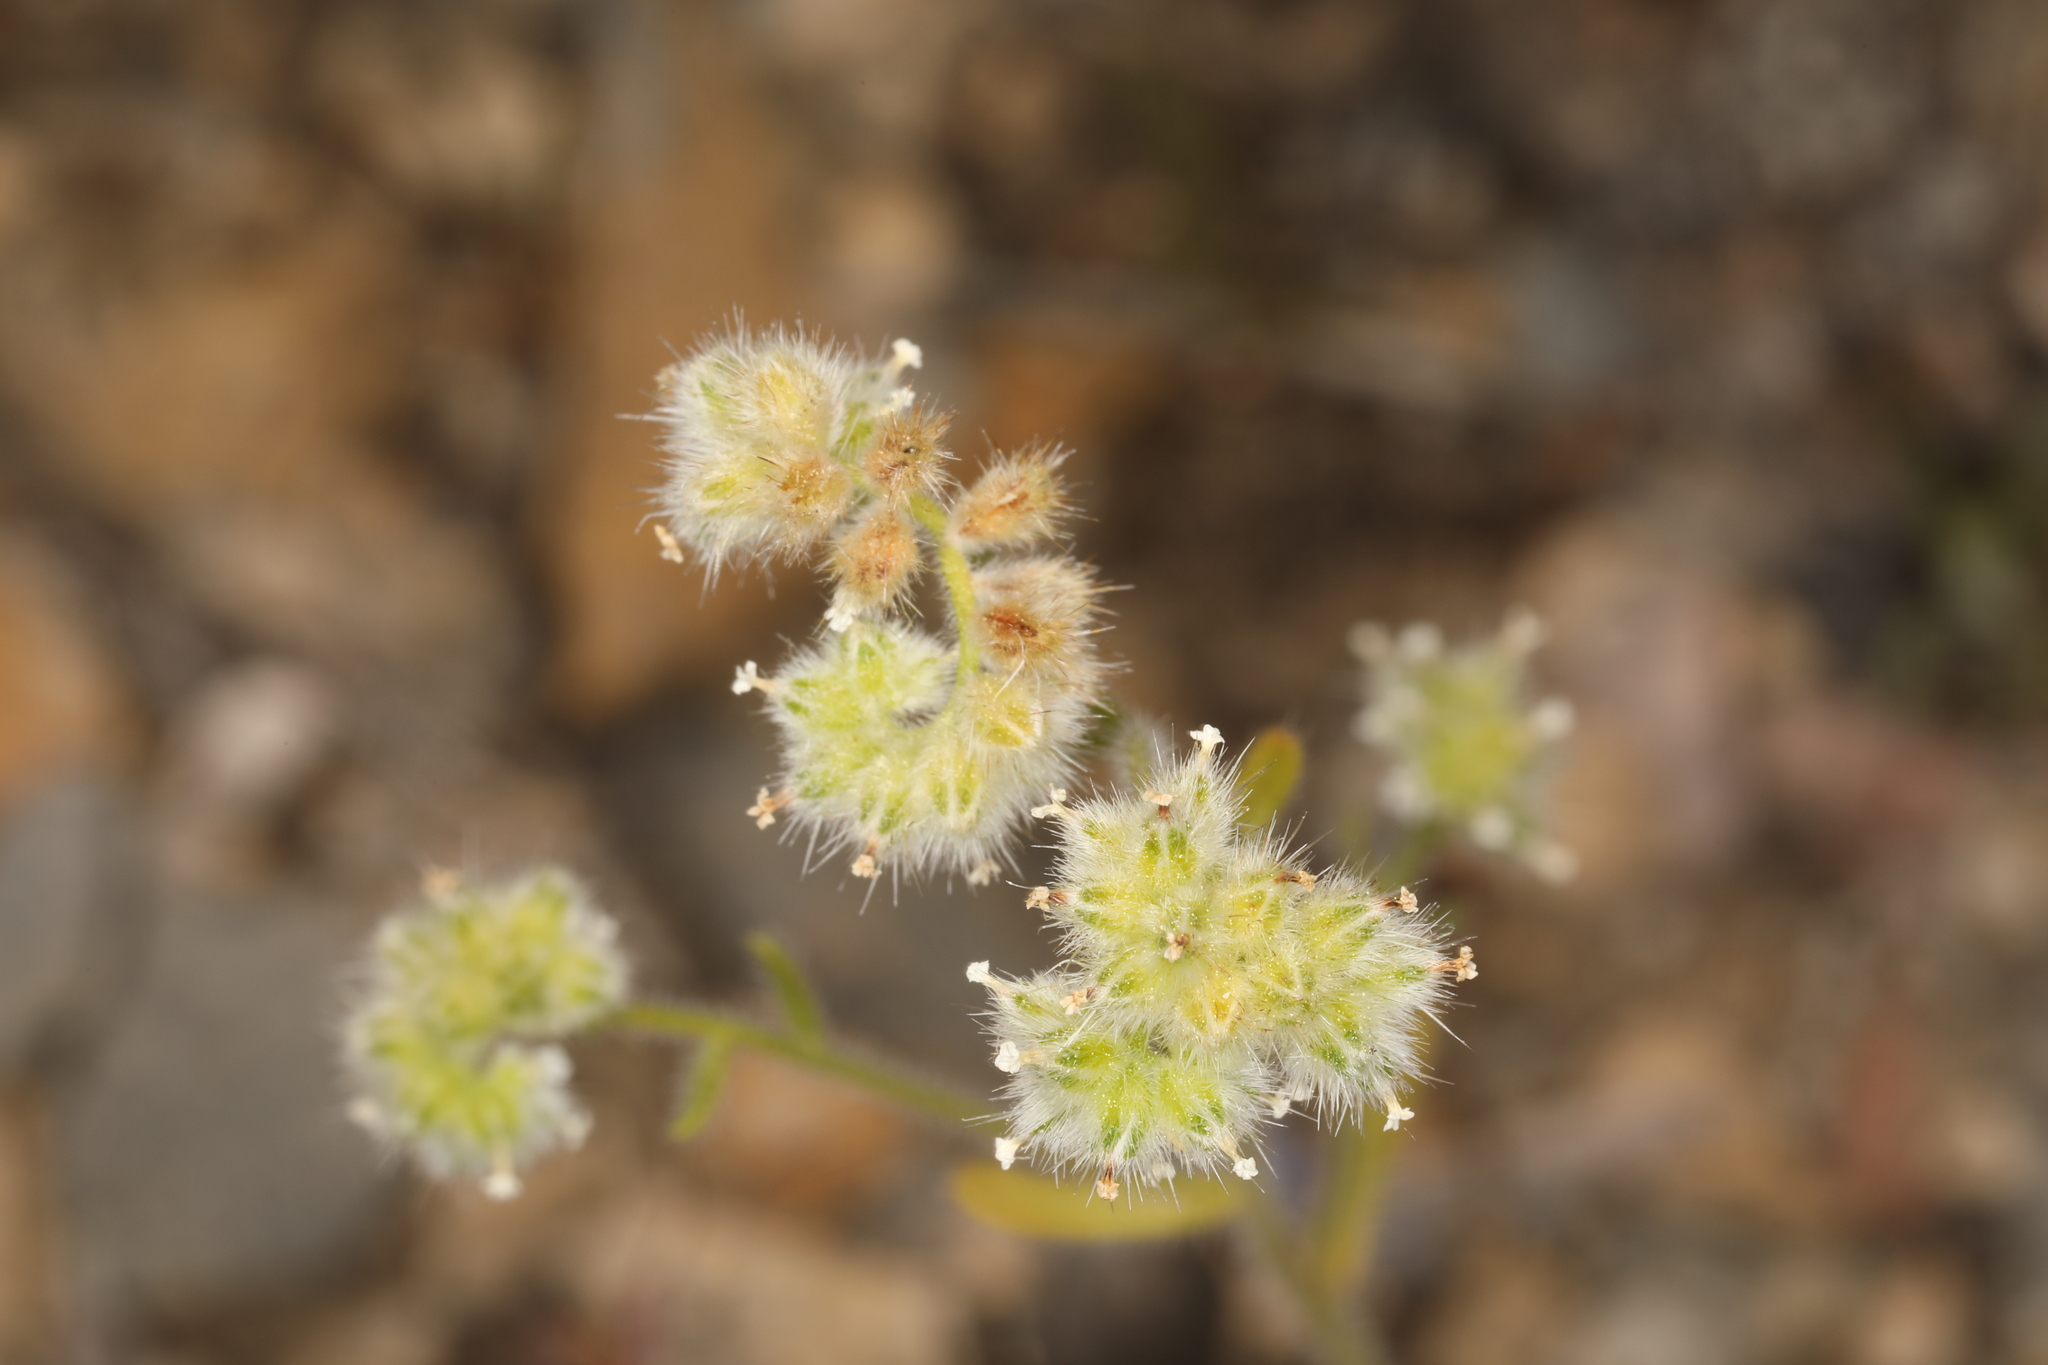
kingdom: Plantae
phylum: Tracheophyta
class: Magnoliopsida
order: Boraginales
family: Boraginaceae
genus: Cryptantha
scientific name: Cryptantha gracilis
